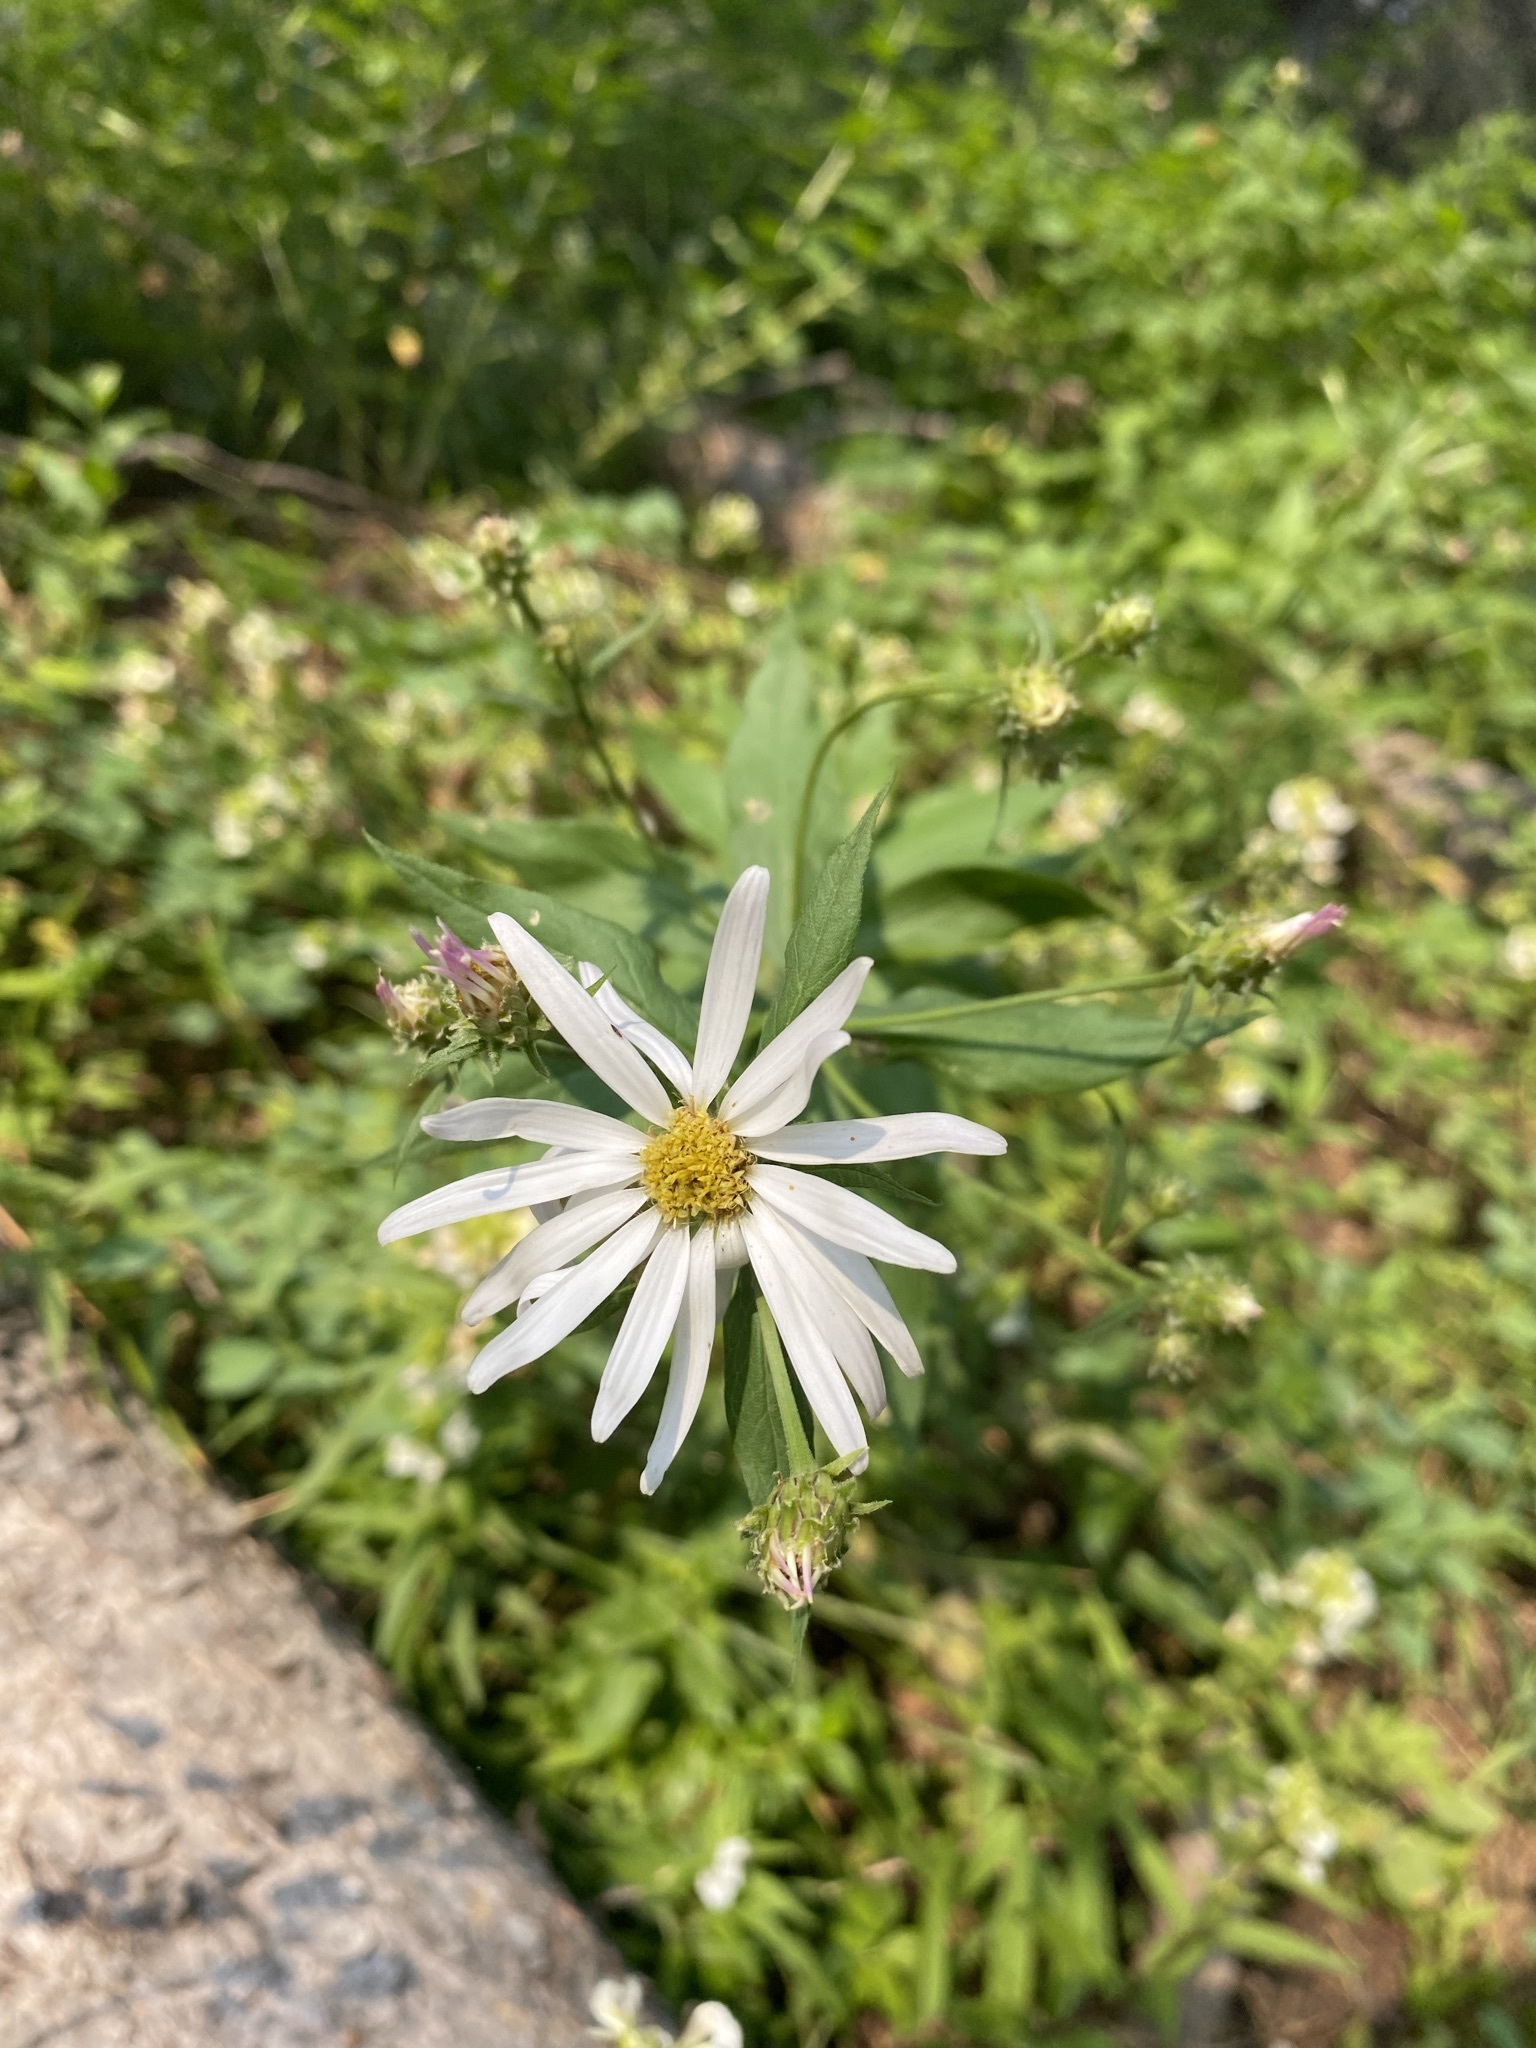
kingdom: Plantae
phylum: Tracheophyta
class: Magnoliopsida
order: Asterales
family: Asteraceae
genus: Eucephalus
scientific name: Eucephalus engelmannii
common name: Engelmann's aster
